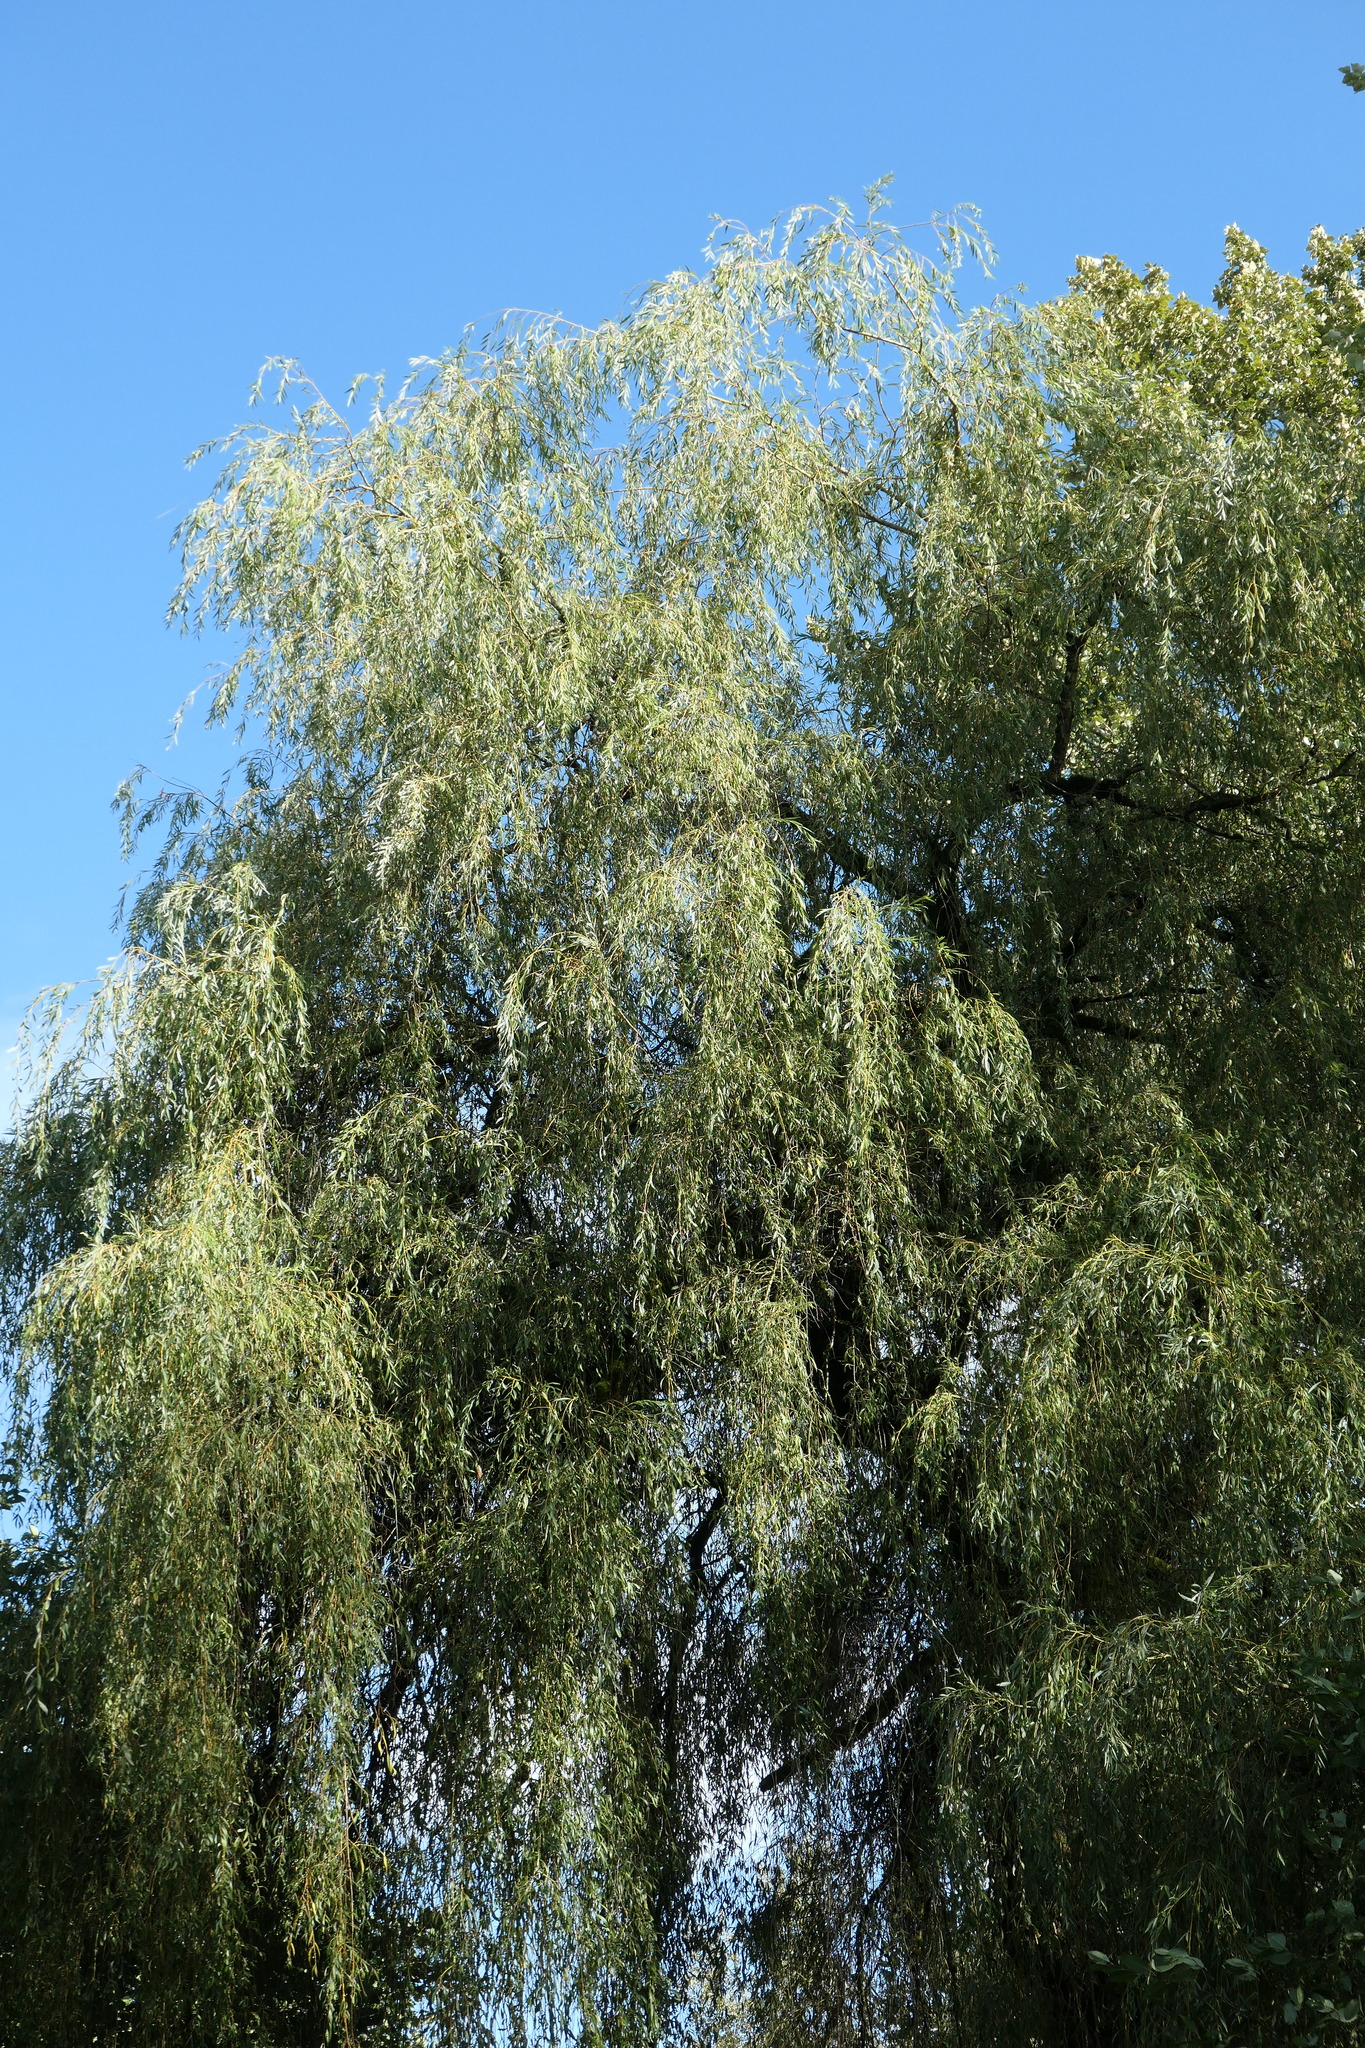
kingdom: Plantae
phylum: Tracheophyta
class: Magnoliopsida
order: Malpighiales
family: Salicaceae
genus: Salix
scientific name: Salix pendulina
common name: Wisconsin weeping willow
